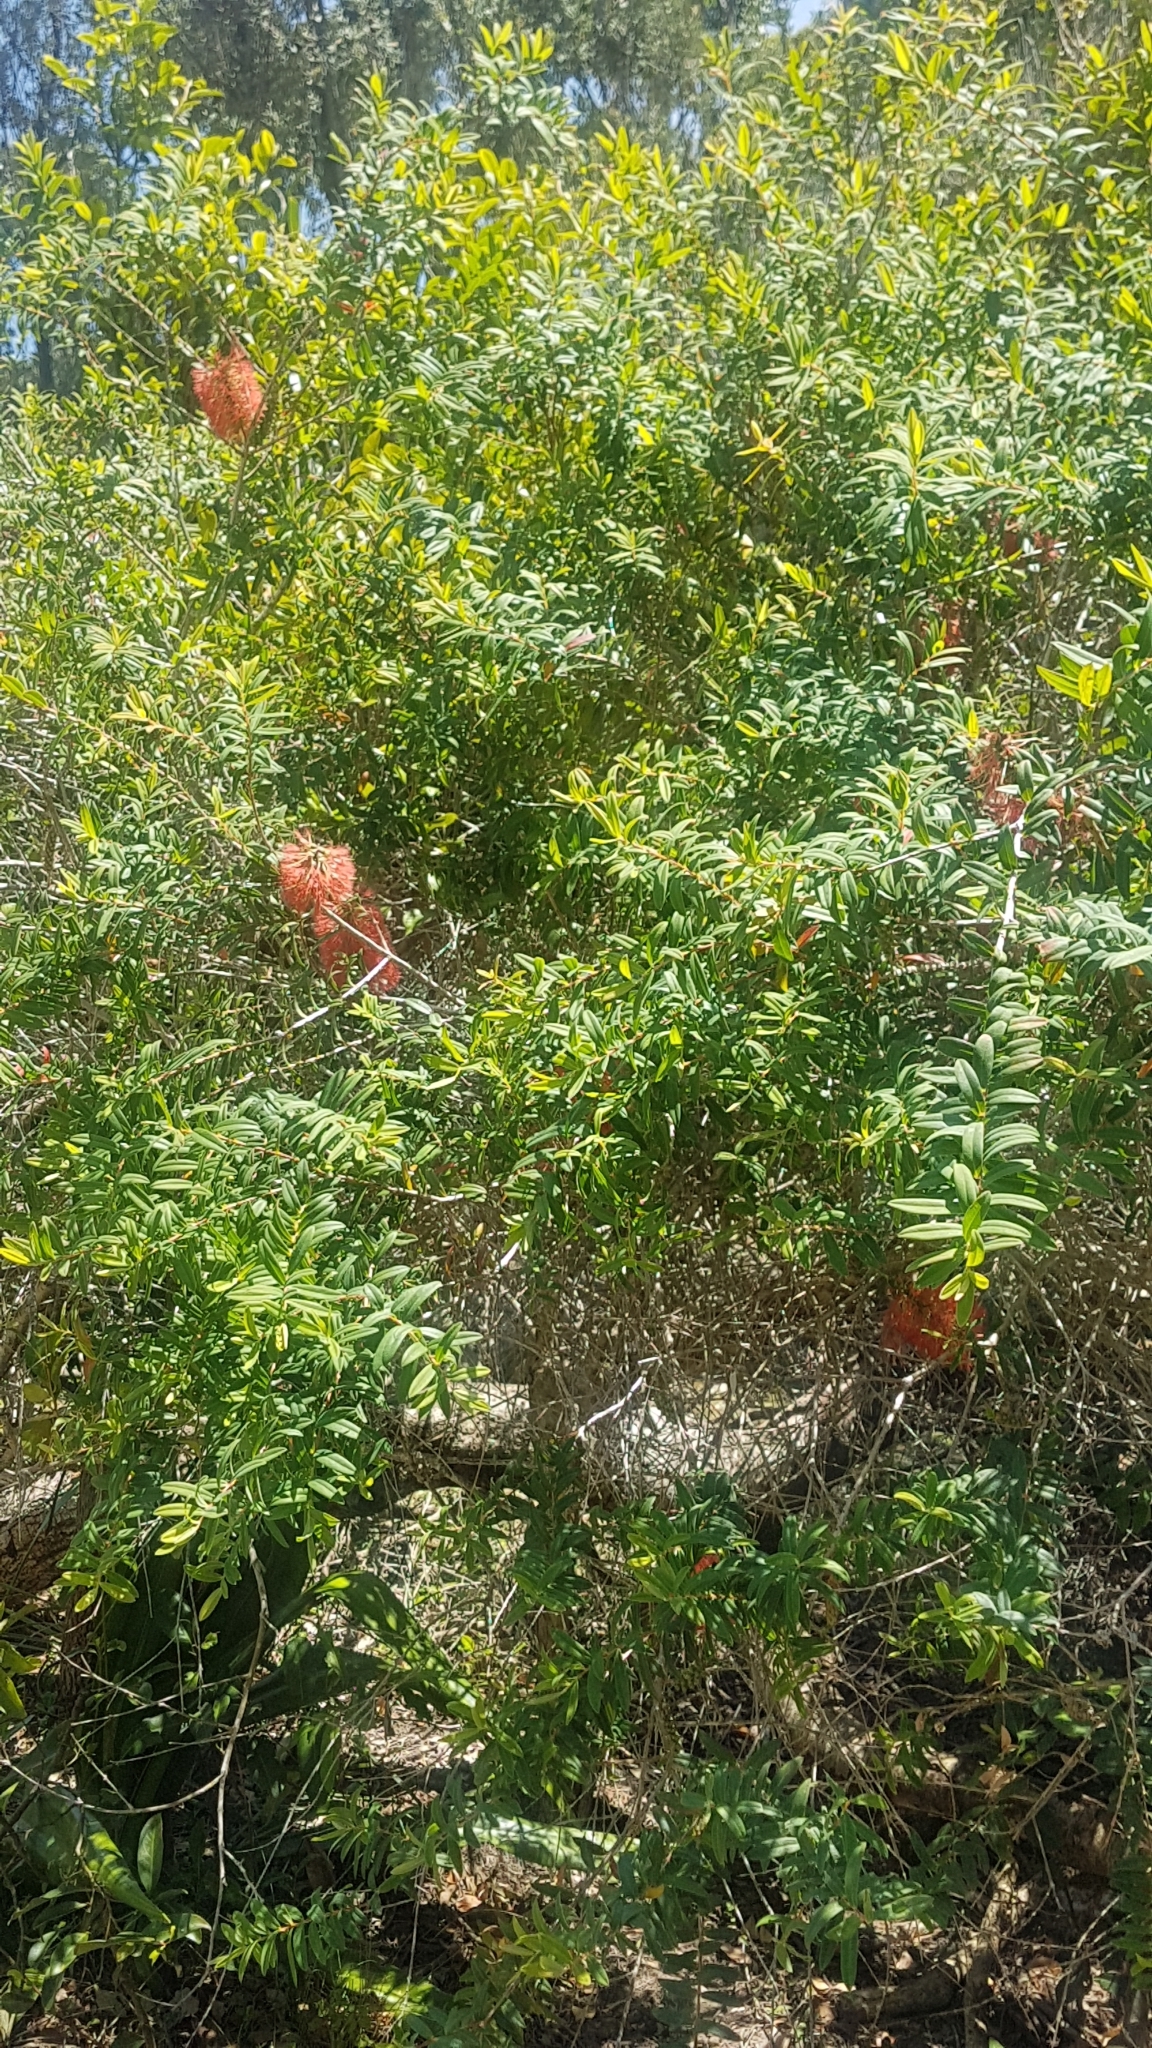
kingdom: Plantae
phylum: Tracheophyta
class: Magnoliopsida
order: Myrtales
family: Myrtaceae
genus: Melaleuca
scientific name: Melaleuca hypericifolia
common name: Red honey myrtle
